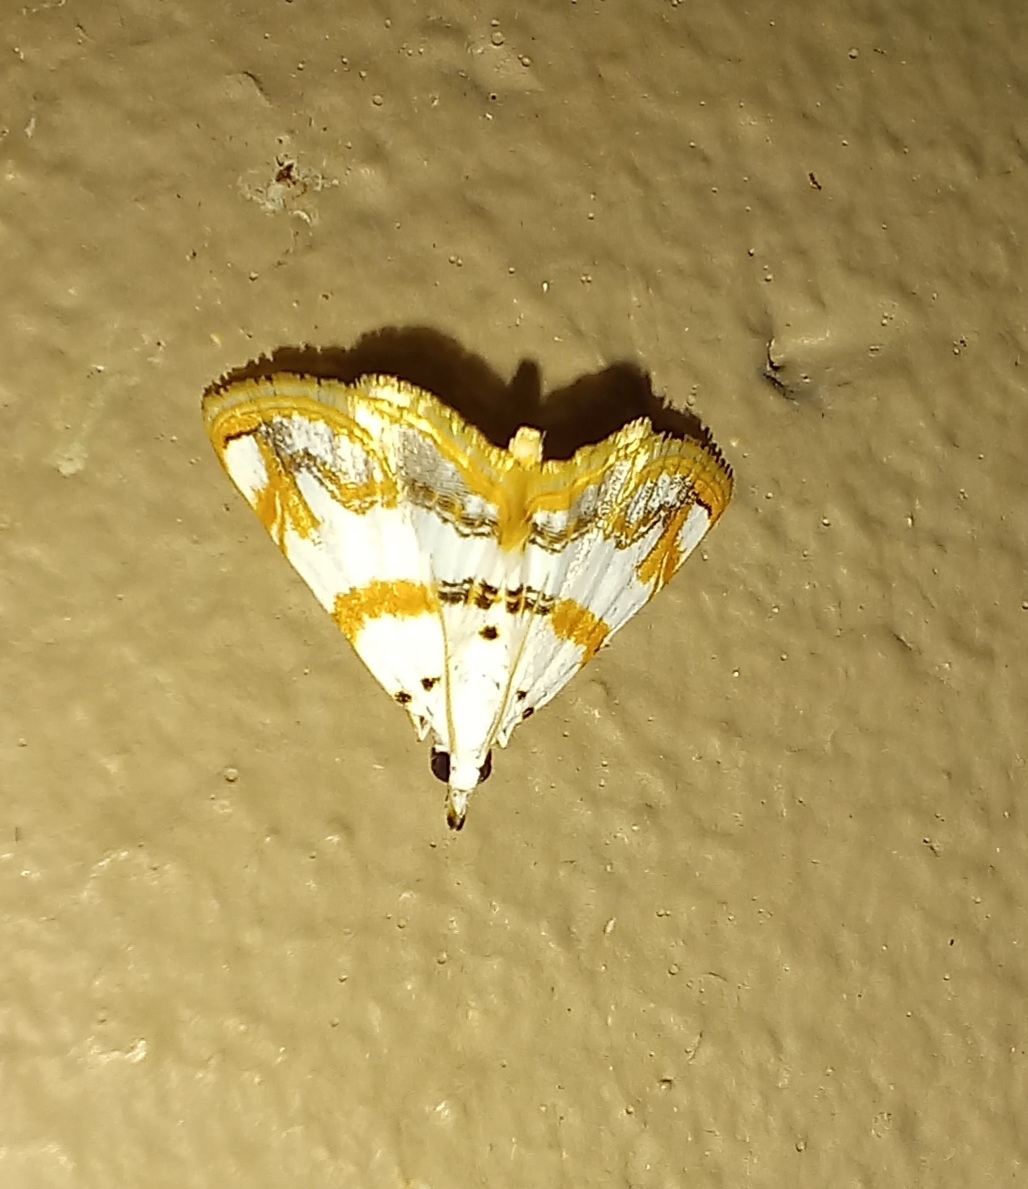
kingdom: Animalia
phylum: Arthropoda
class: Insecta
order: Lepidoptera
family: Crambidae
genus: Trichophysetis
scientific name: Trichophysetis flavimargo
